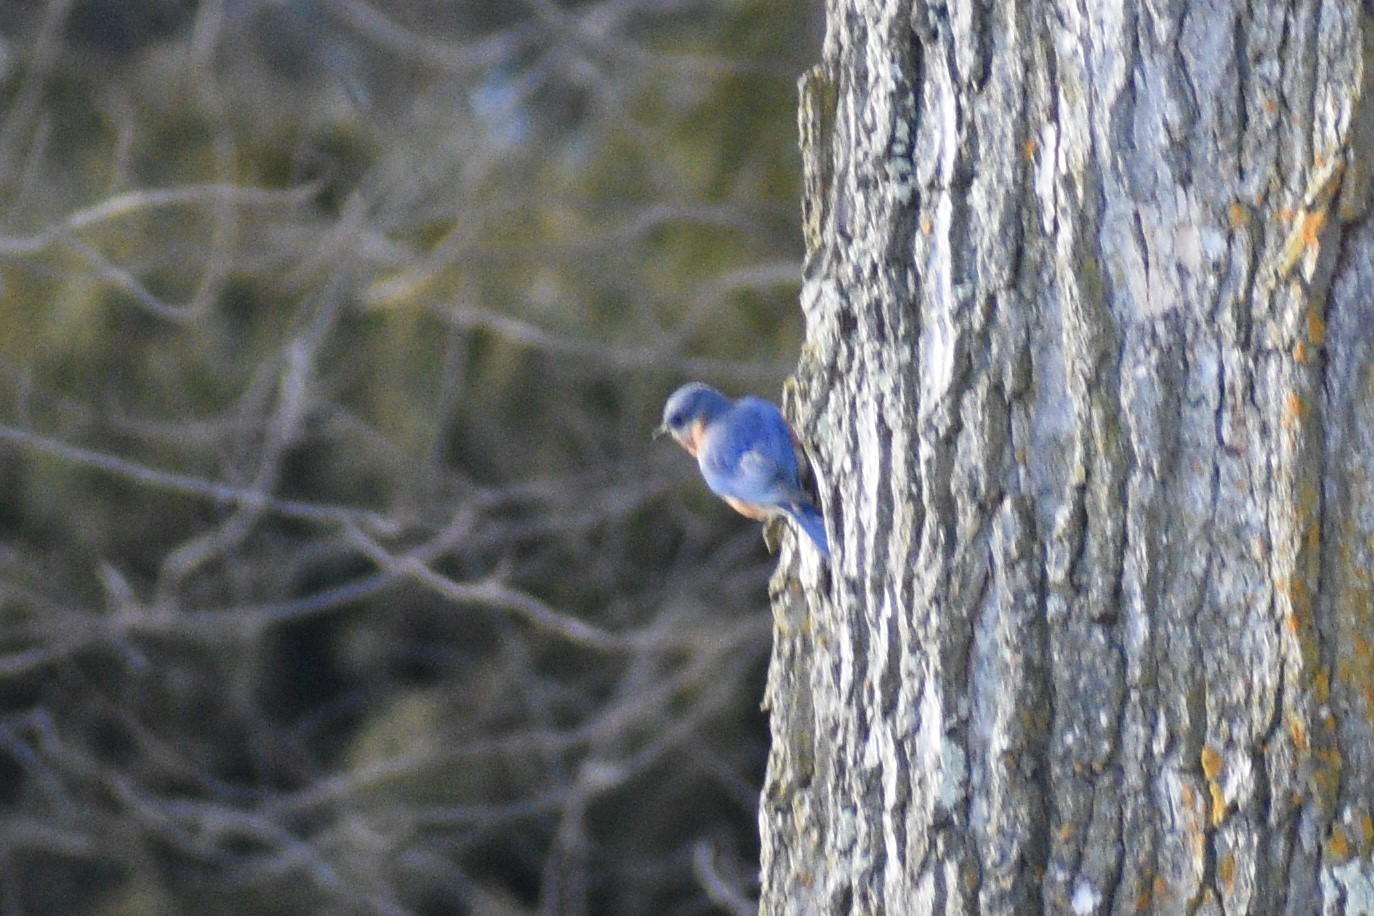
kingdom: Animalia
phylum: Chordata
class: Aves
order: Passeriformes
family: Turdidae
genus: Sialia
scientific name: Sialia sialis
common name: Eastern bluebird
